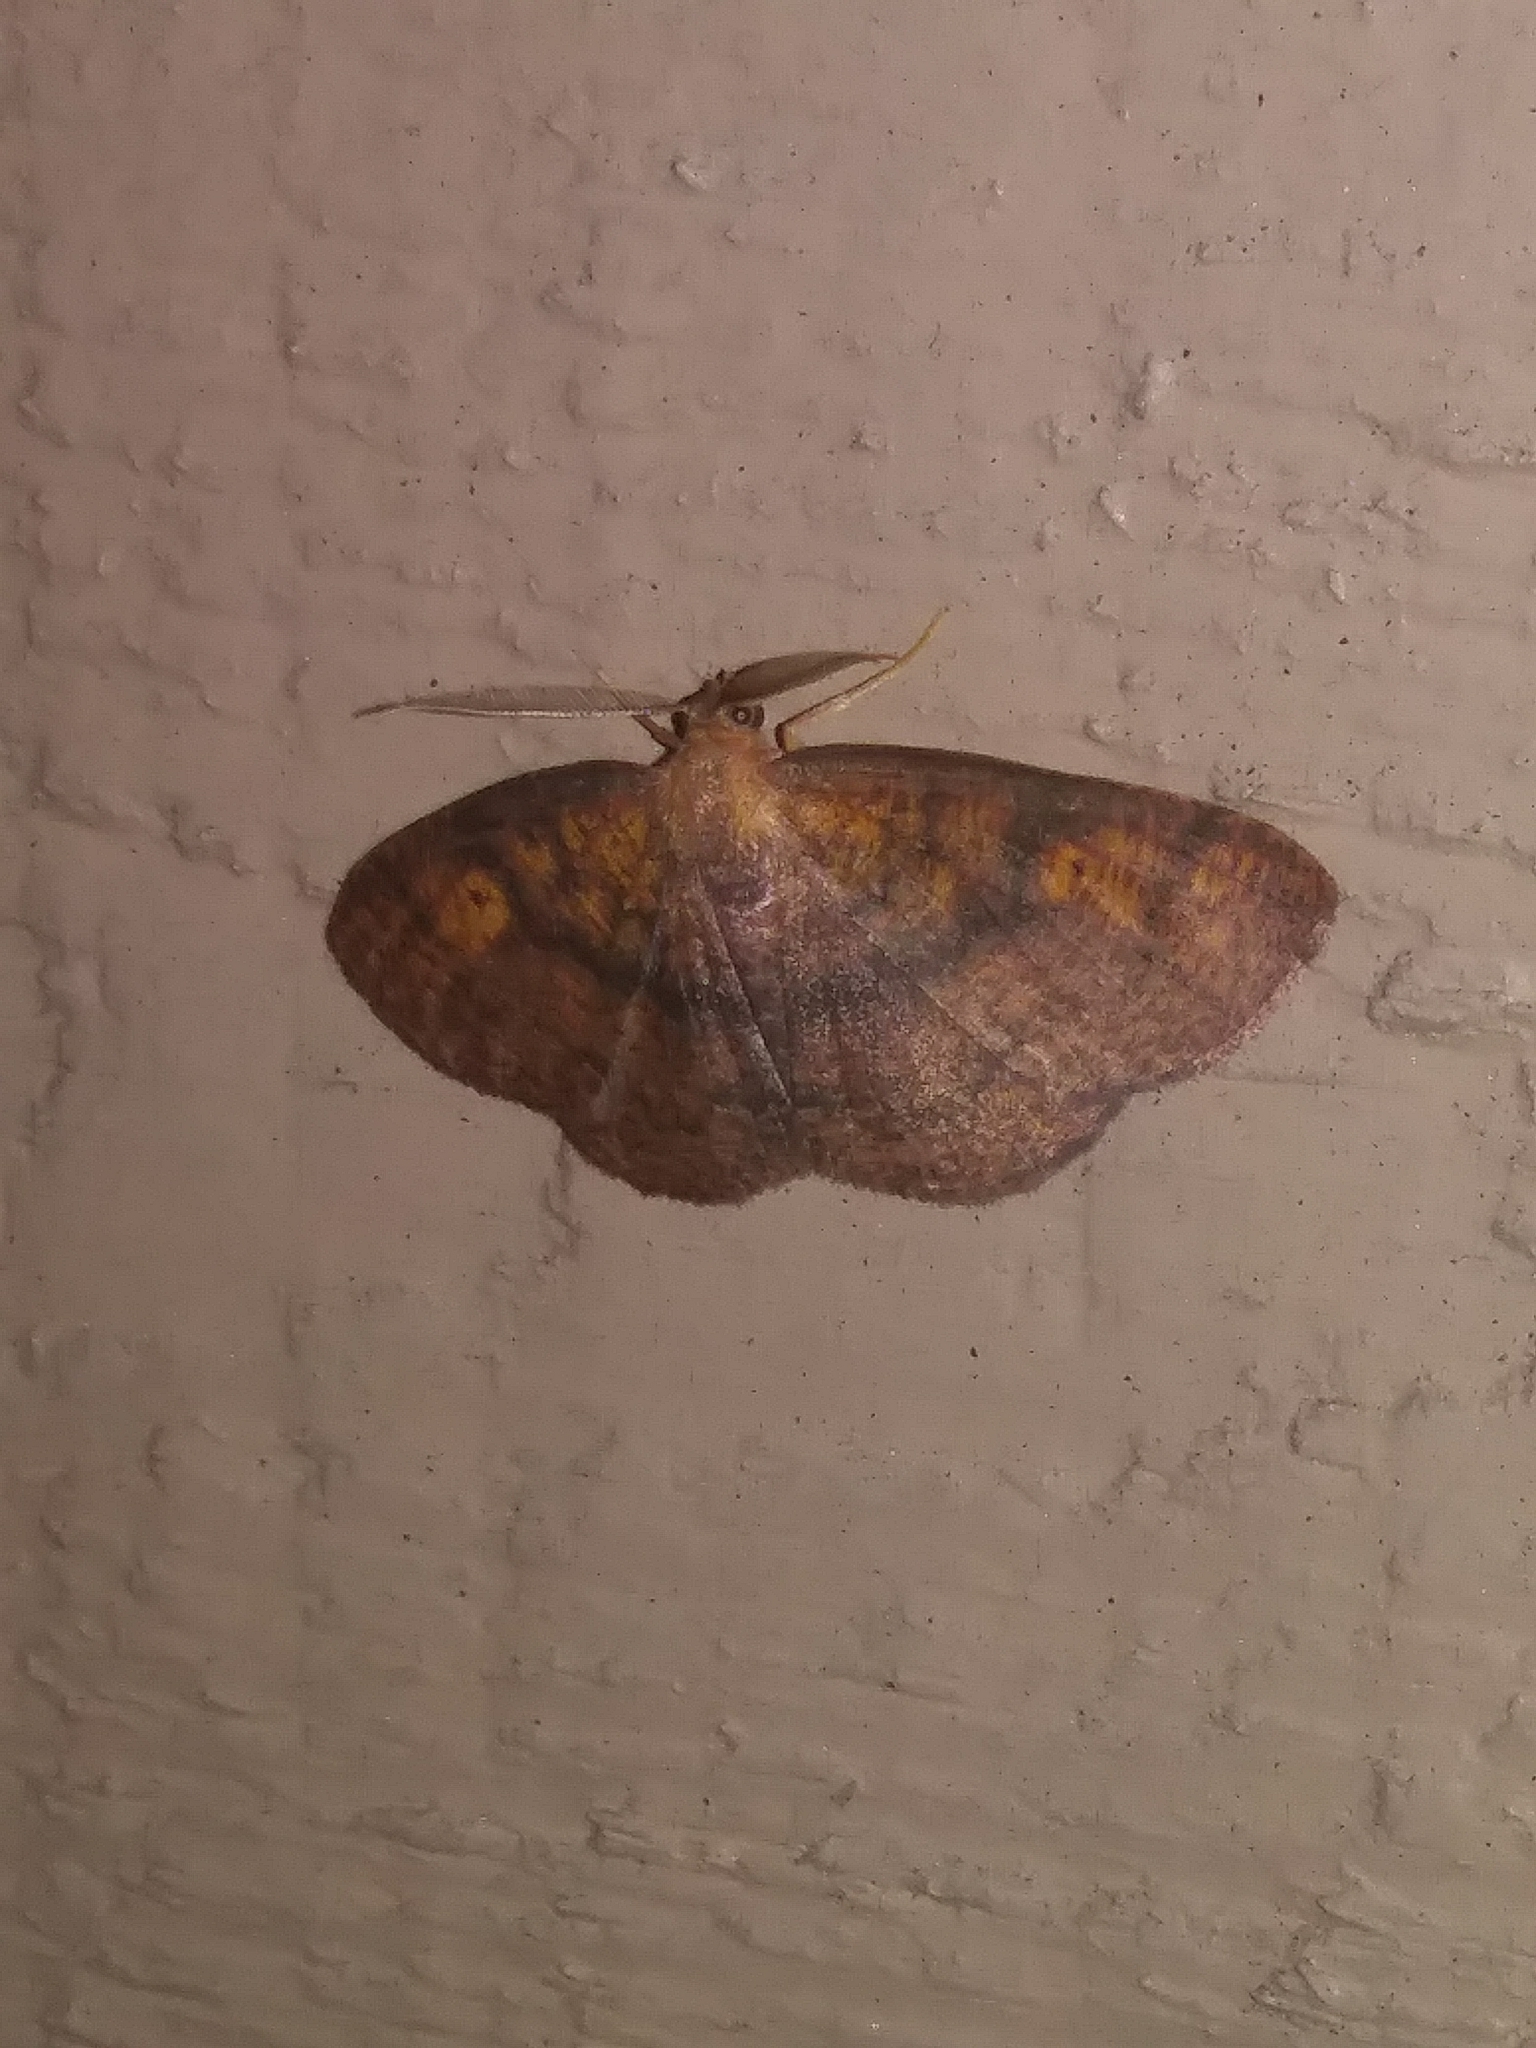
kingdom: Animalia
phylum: Arthropoda
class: Insecta
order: Lepidoptera
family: Geometridae
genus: Ilexia
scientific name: Ilexia intractata
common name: Black-dotted ruddy moth
